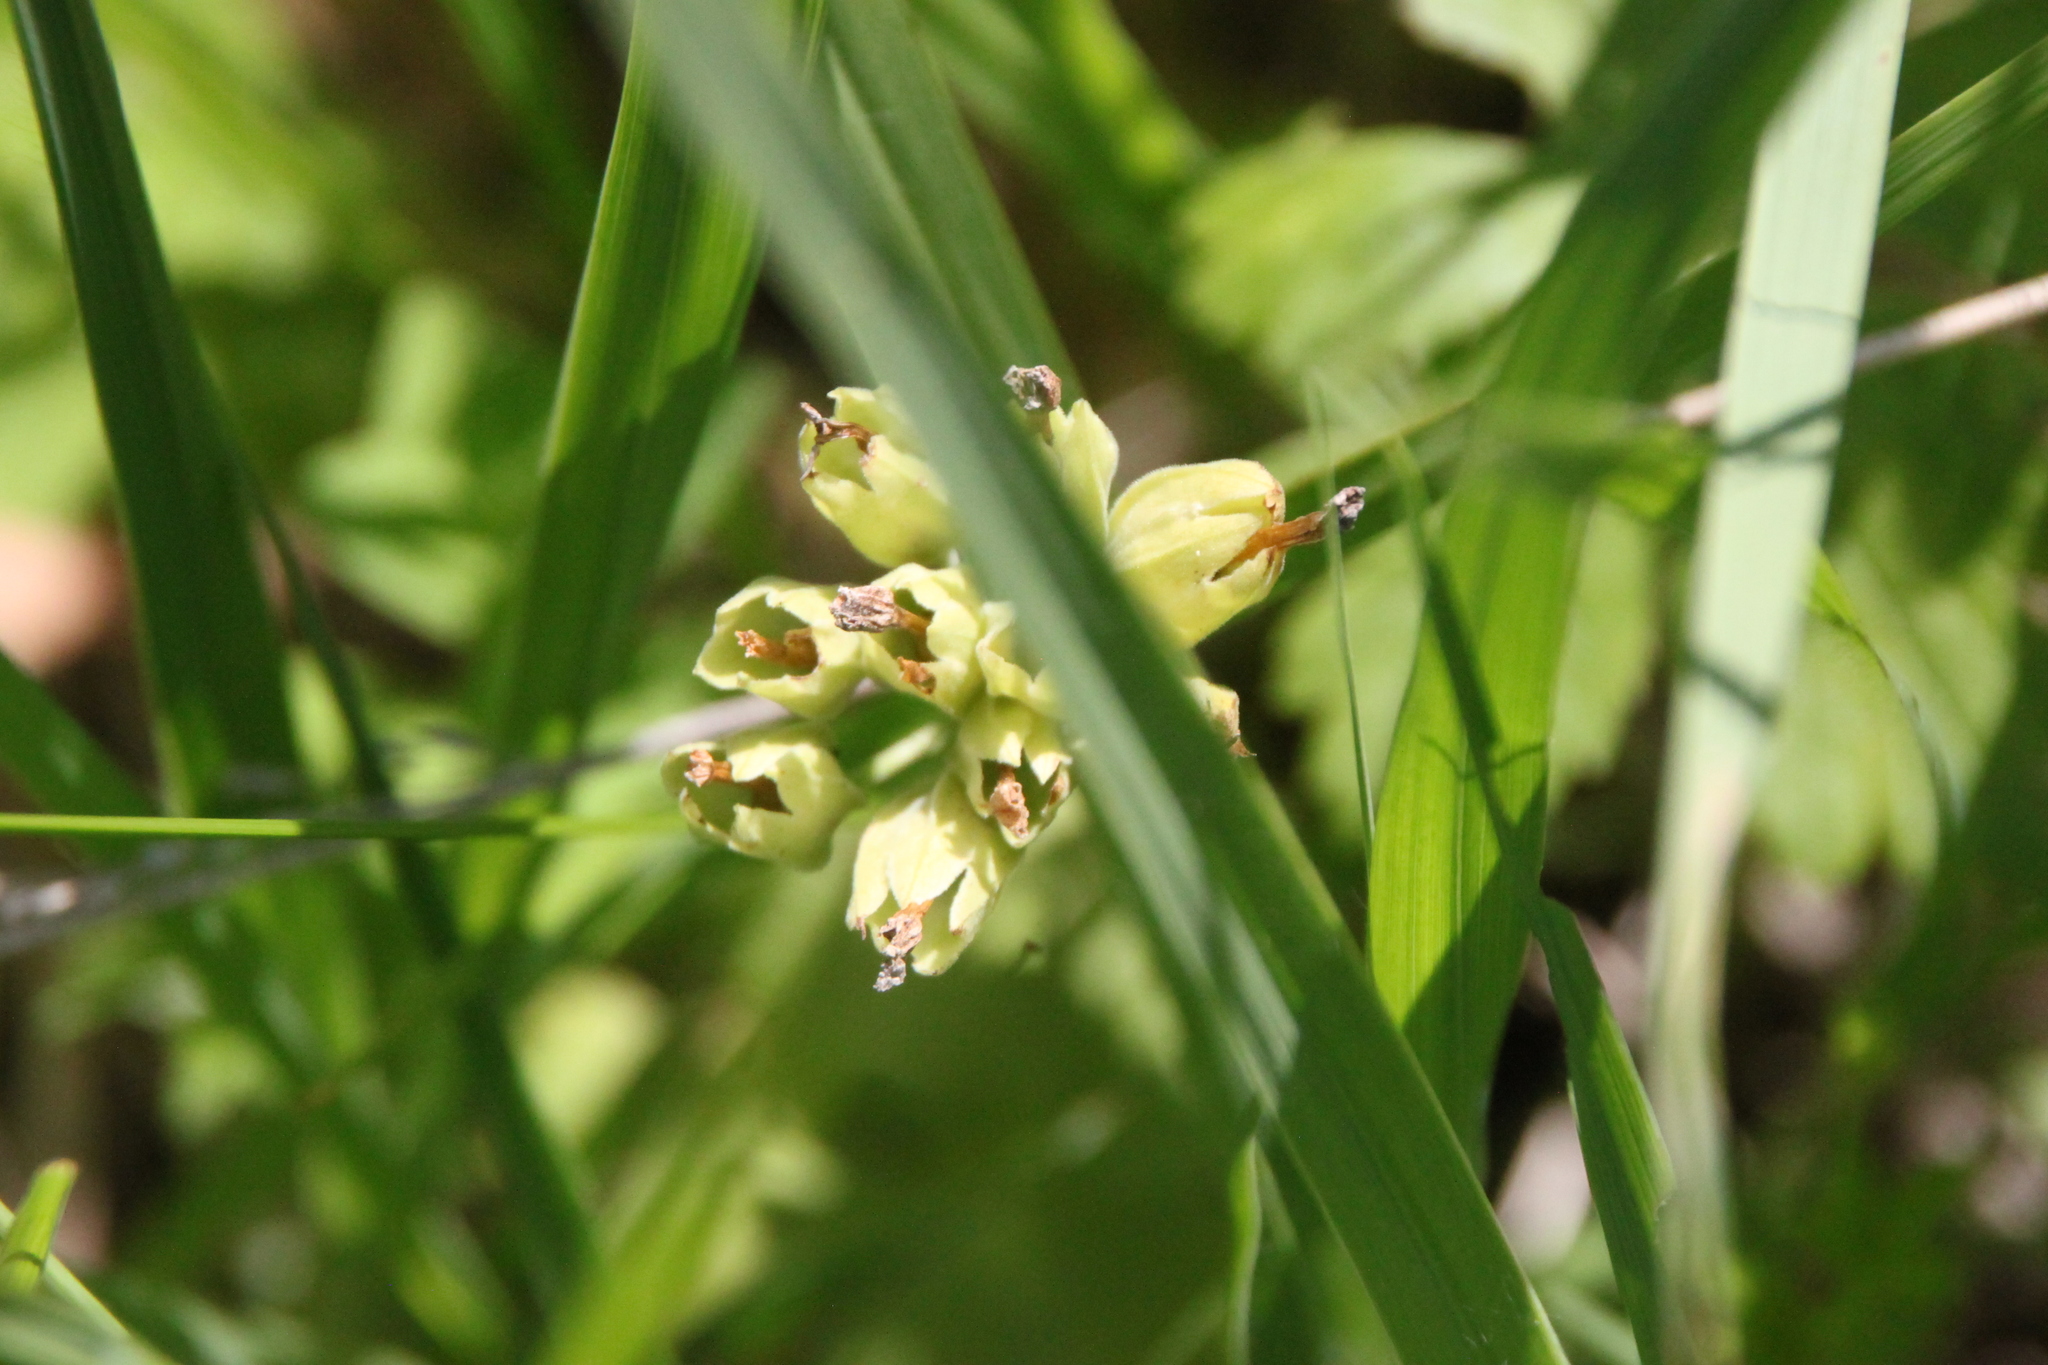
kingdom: Plantae
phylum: Tracheophyta
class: Magnoliopsida
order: Ericales
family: Primulaceae
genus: Primula
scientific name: Primula veris
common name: Cowslip
